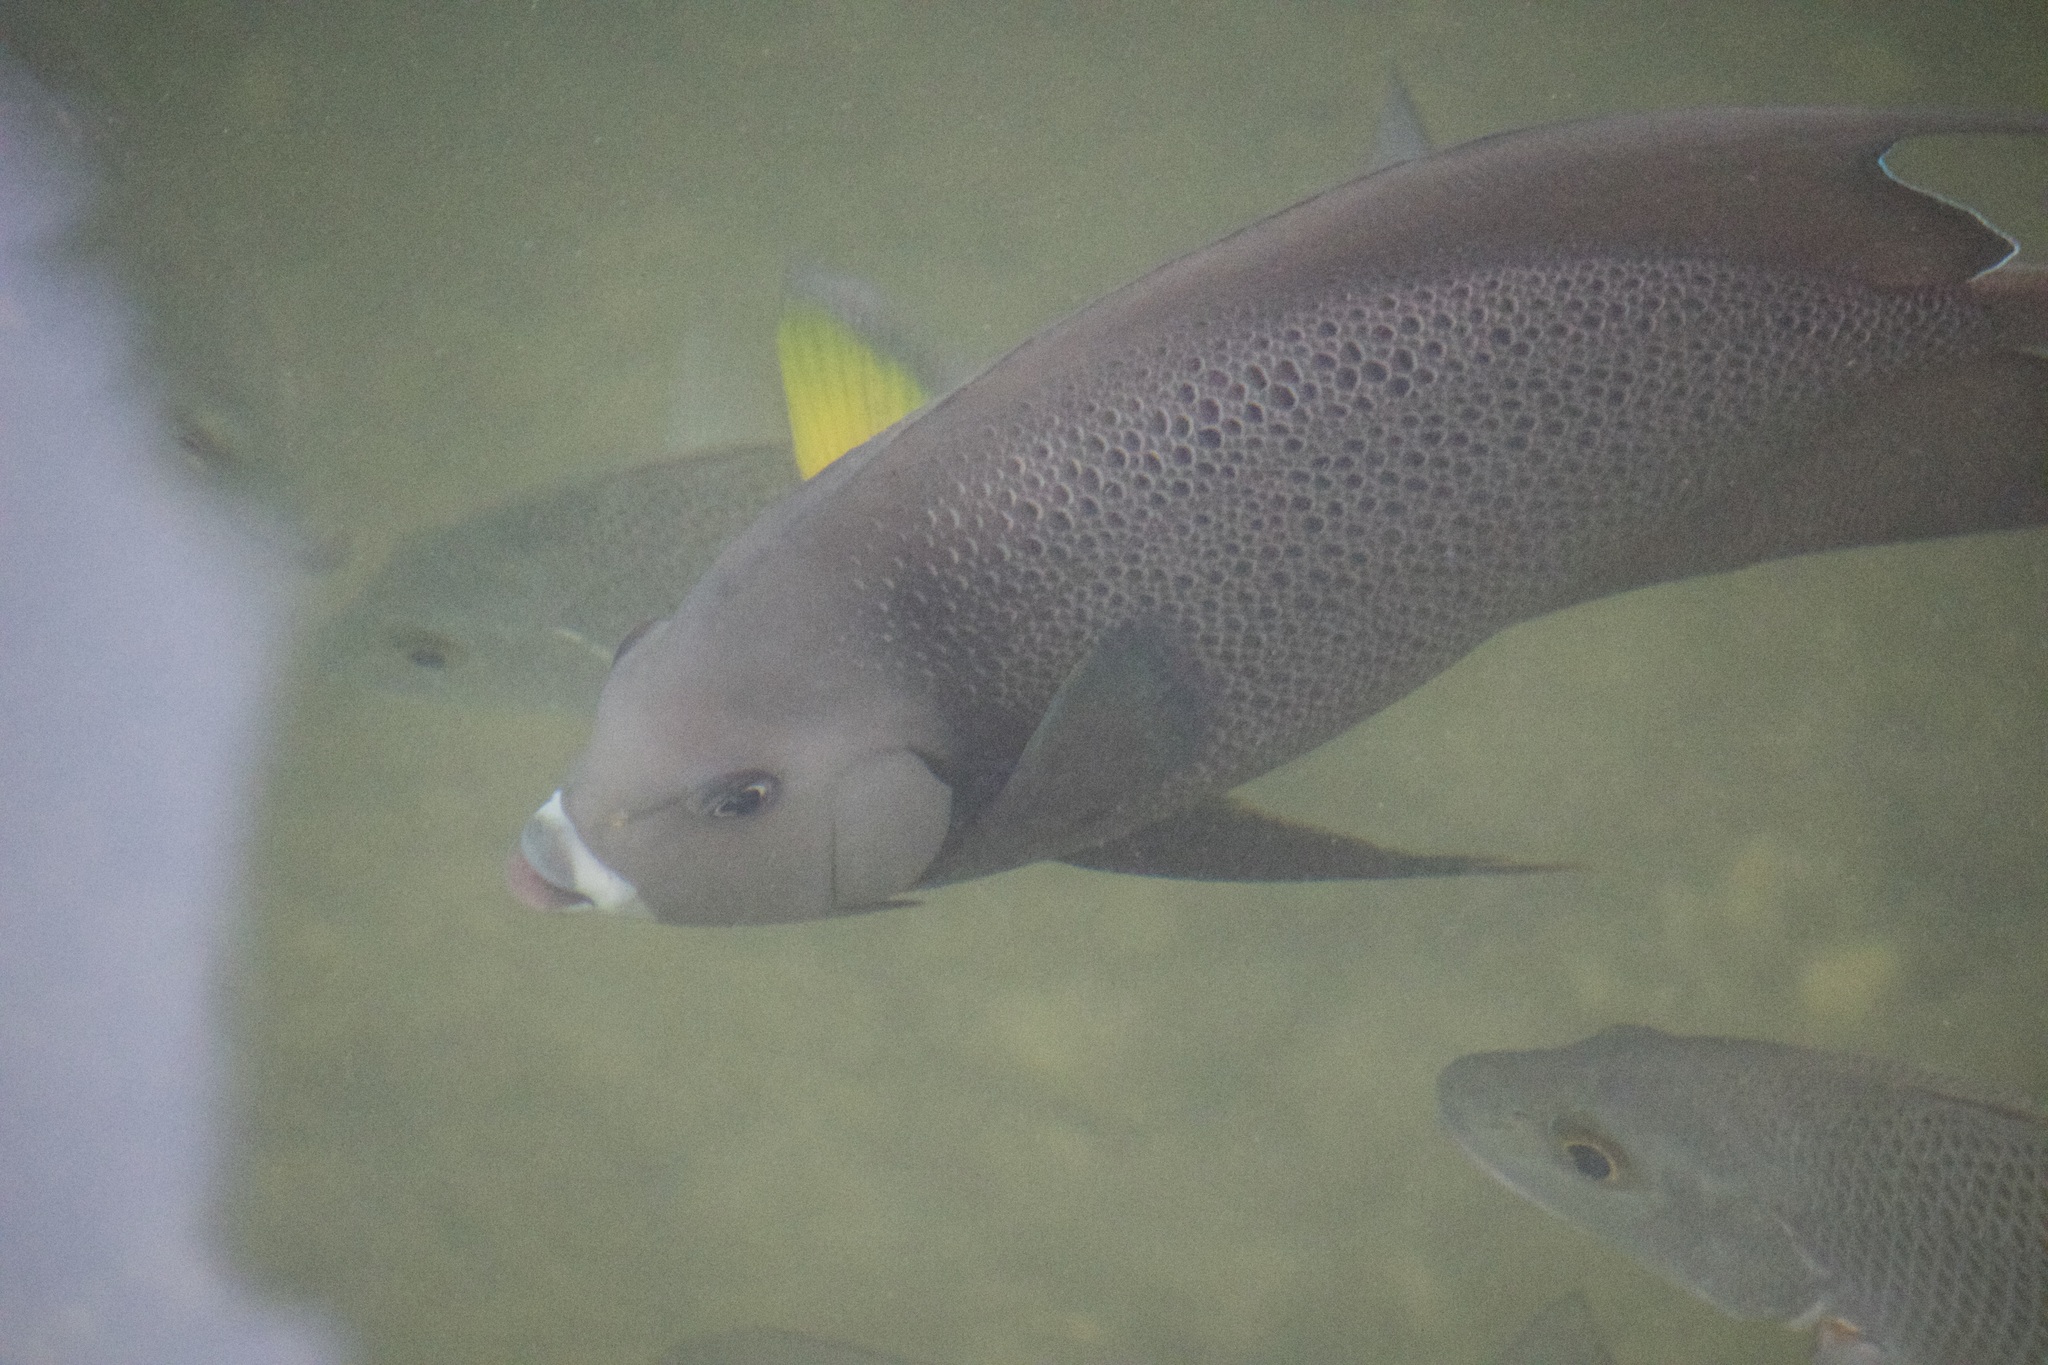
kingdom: Animalia
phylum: Chordata
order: Perciformes
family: Pomacanthidae
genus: Pomacanthus
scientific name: Pomacanthus arcuatus
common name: Gray angelfish
